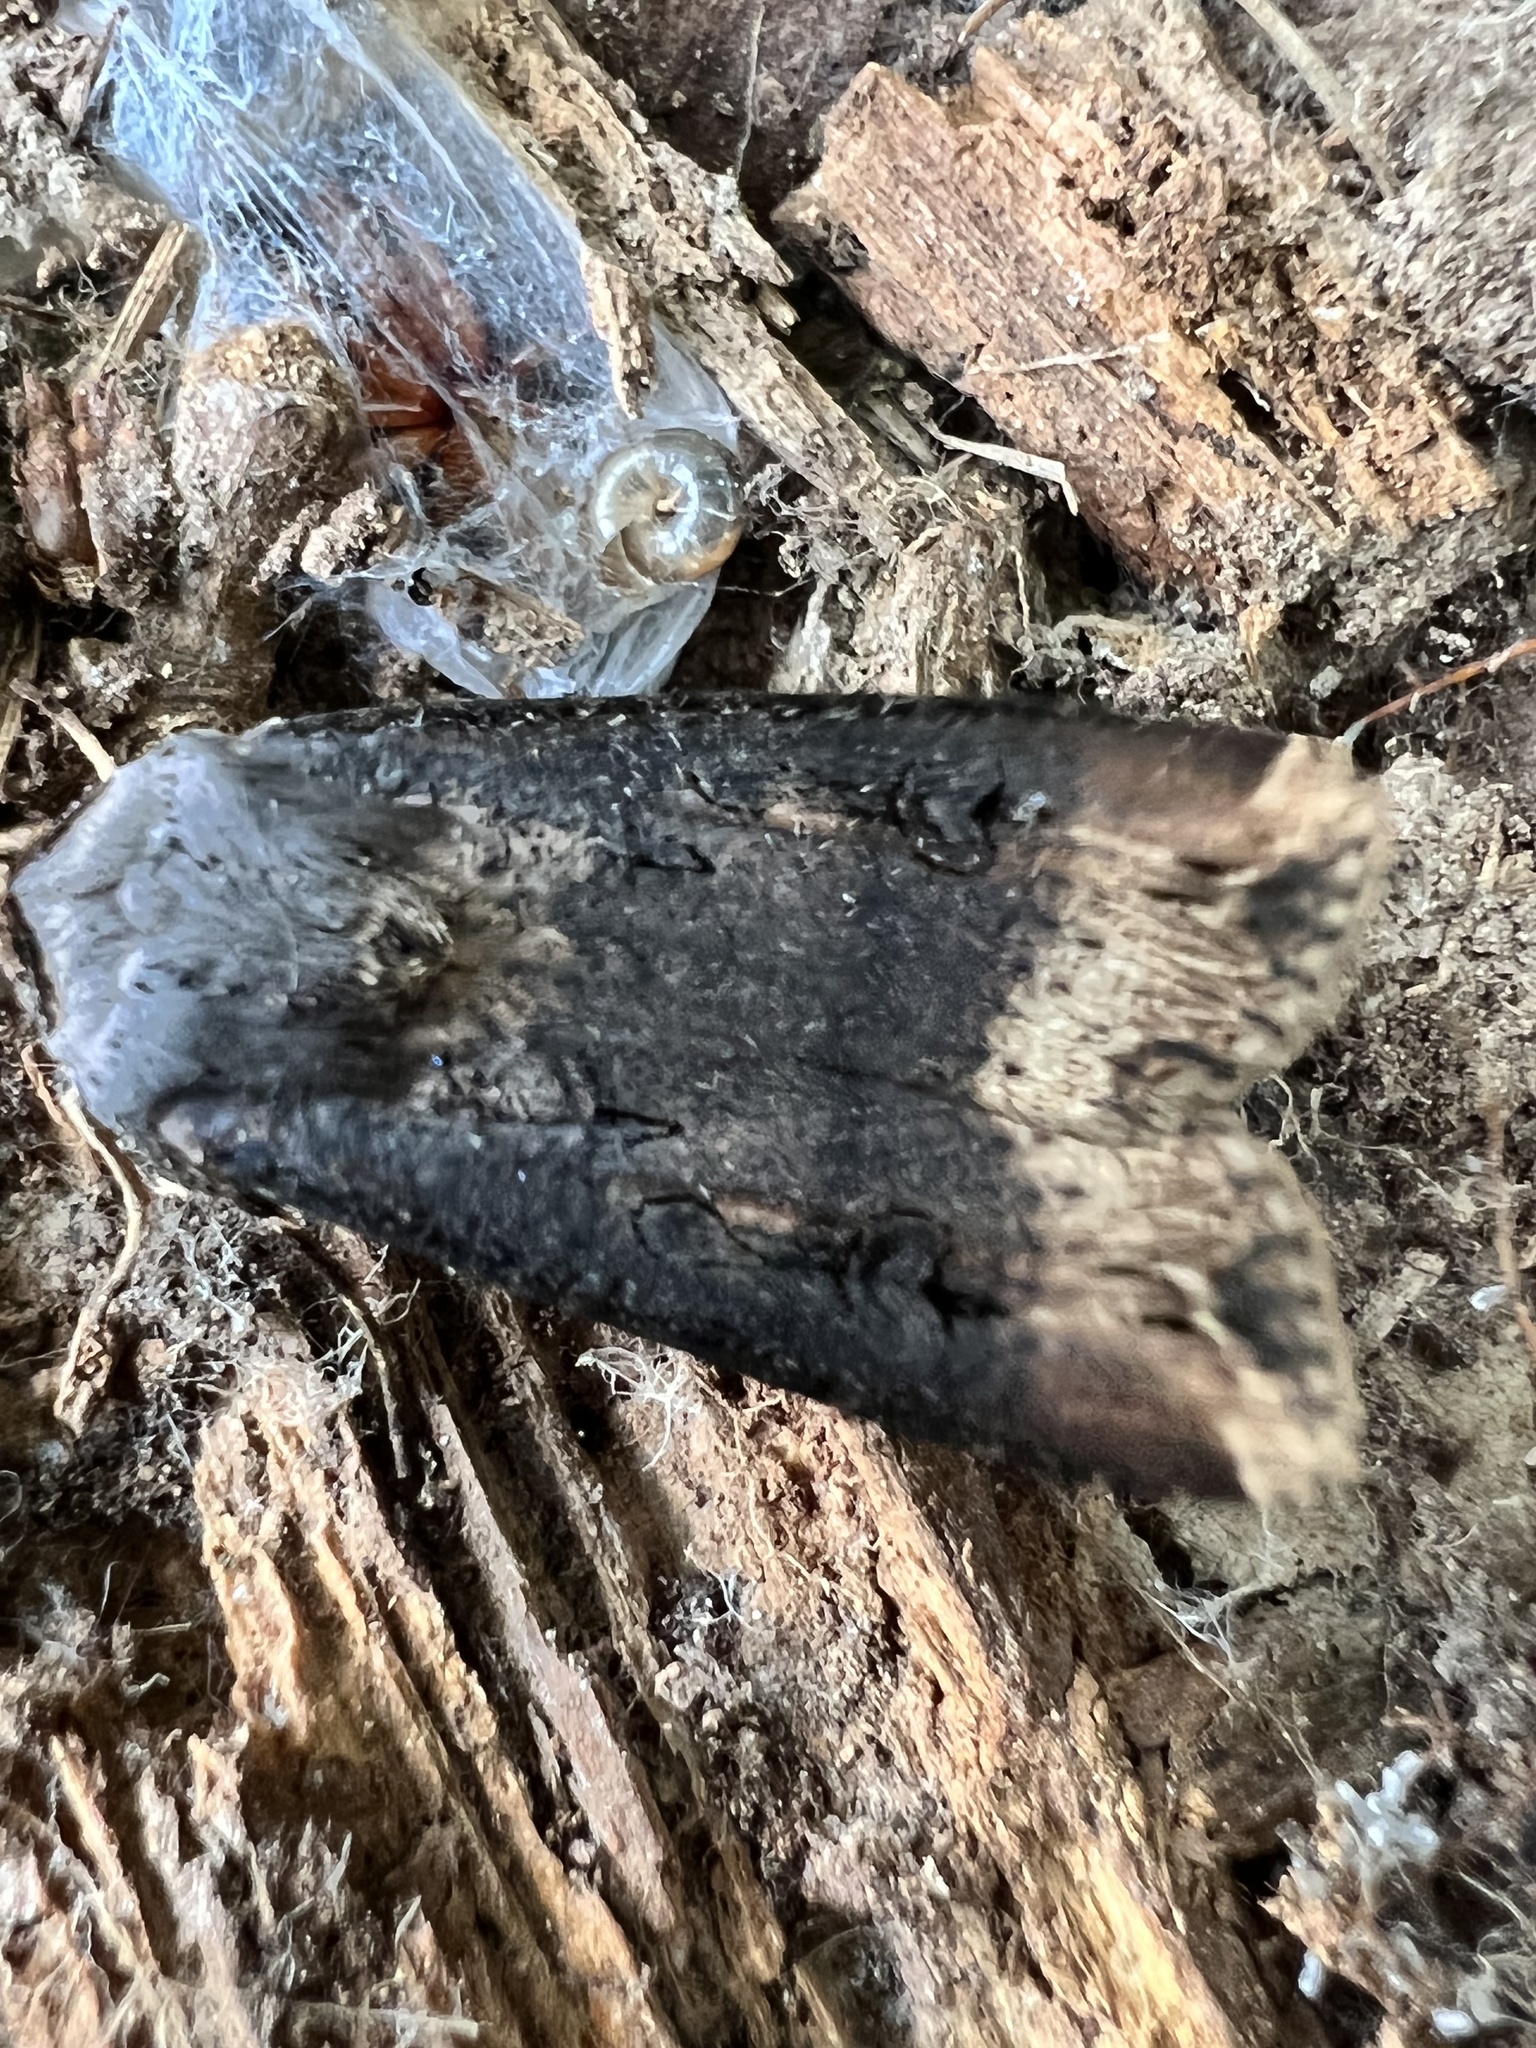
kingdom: Animalia
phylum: Arthropoda
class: Insecta
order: Lepidoptera
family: Noctuidae
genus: Agrotis
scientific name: Agrotis ipsilon
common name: Dark sword-grass
